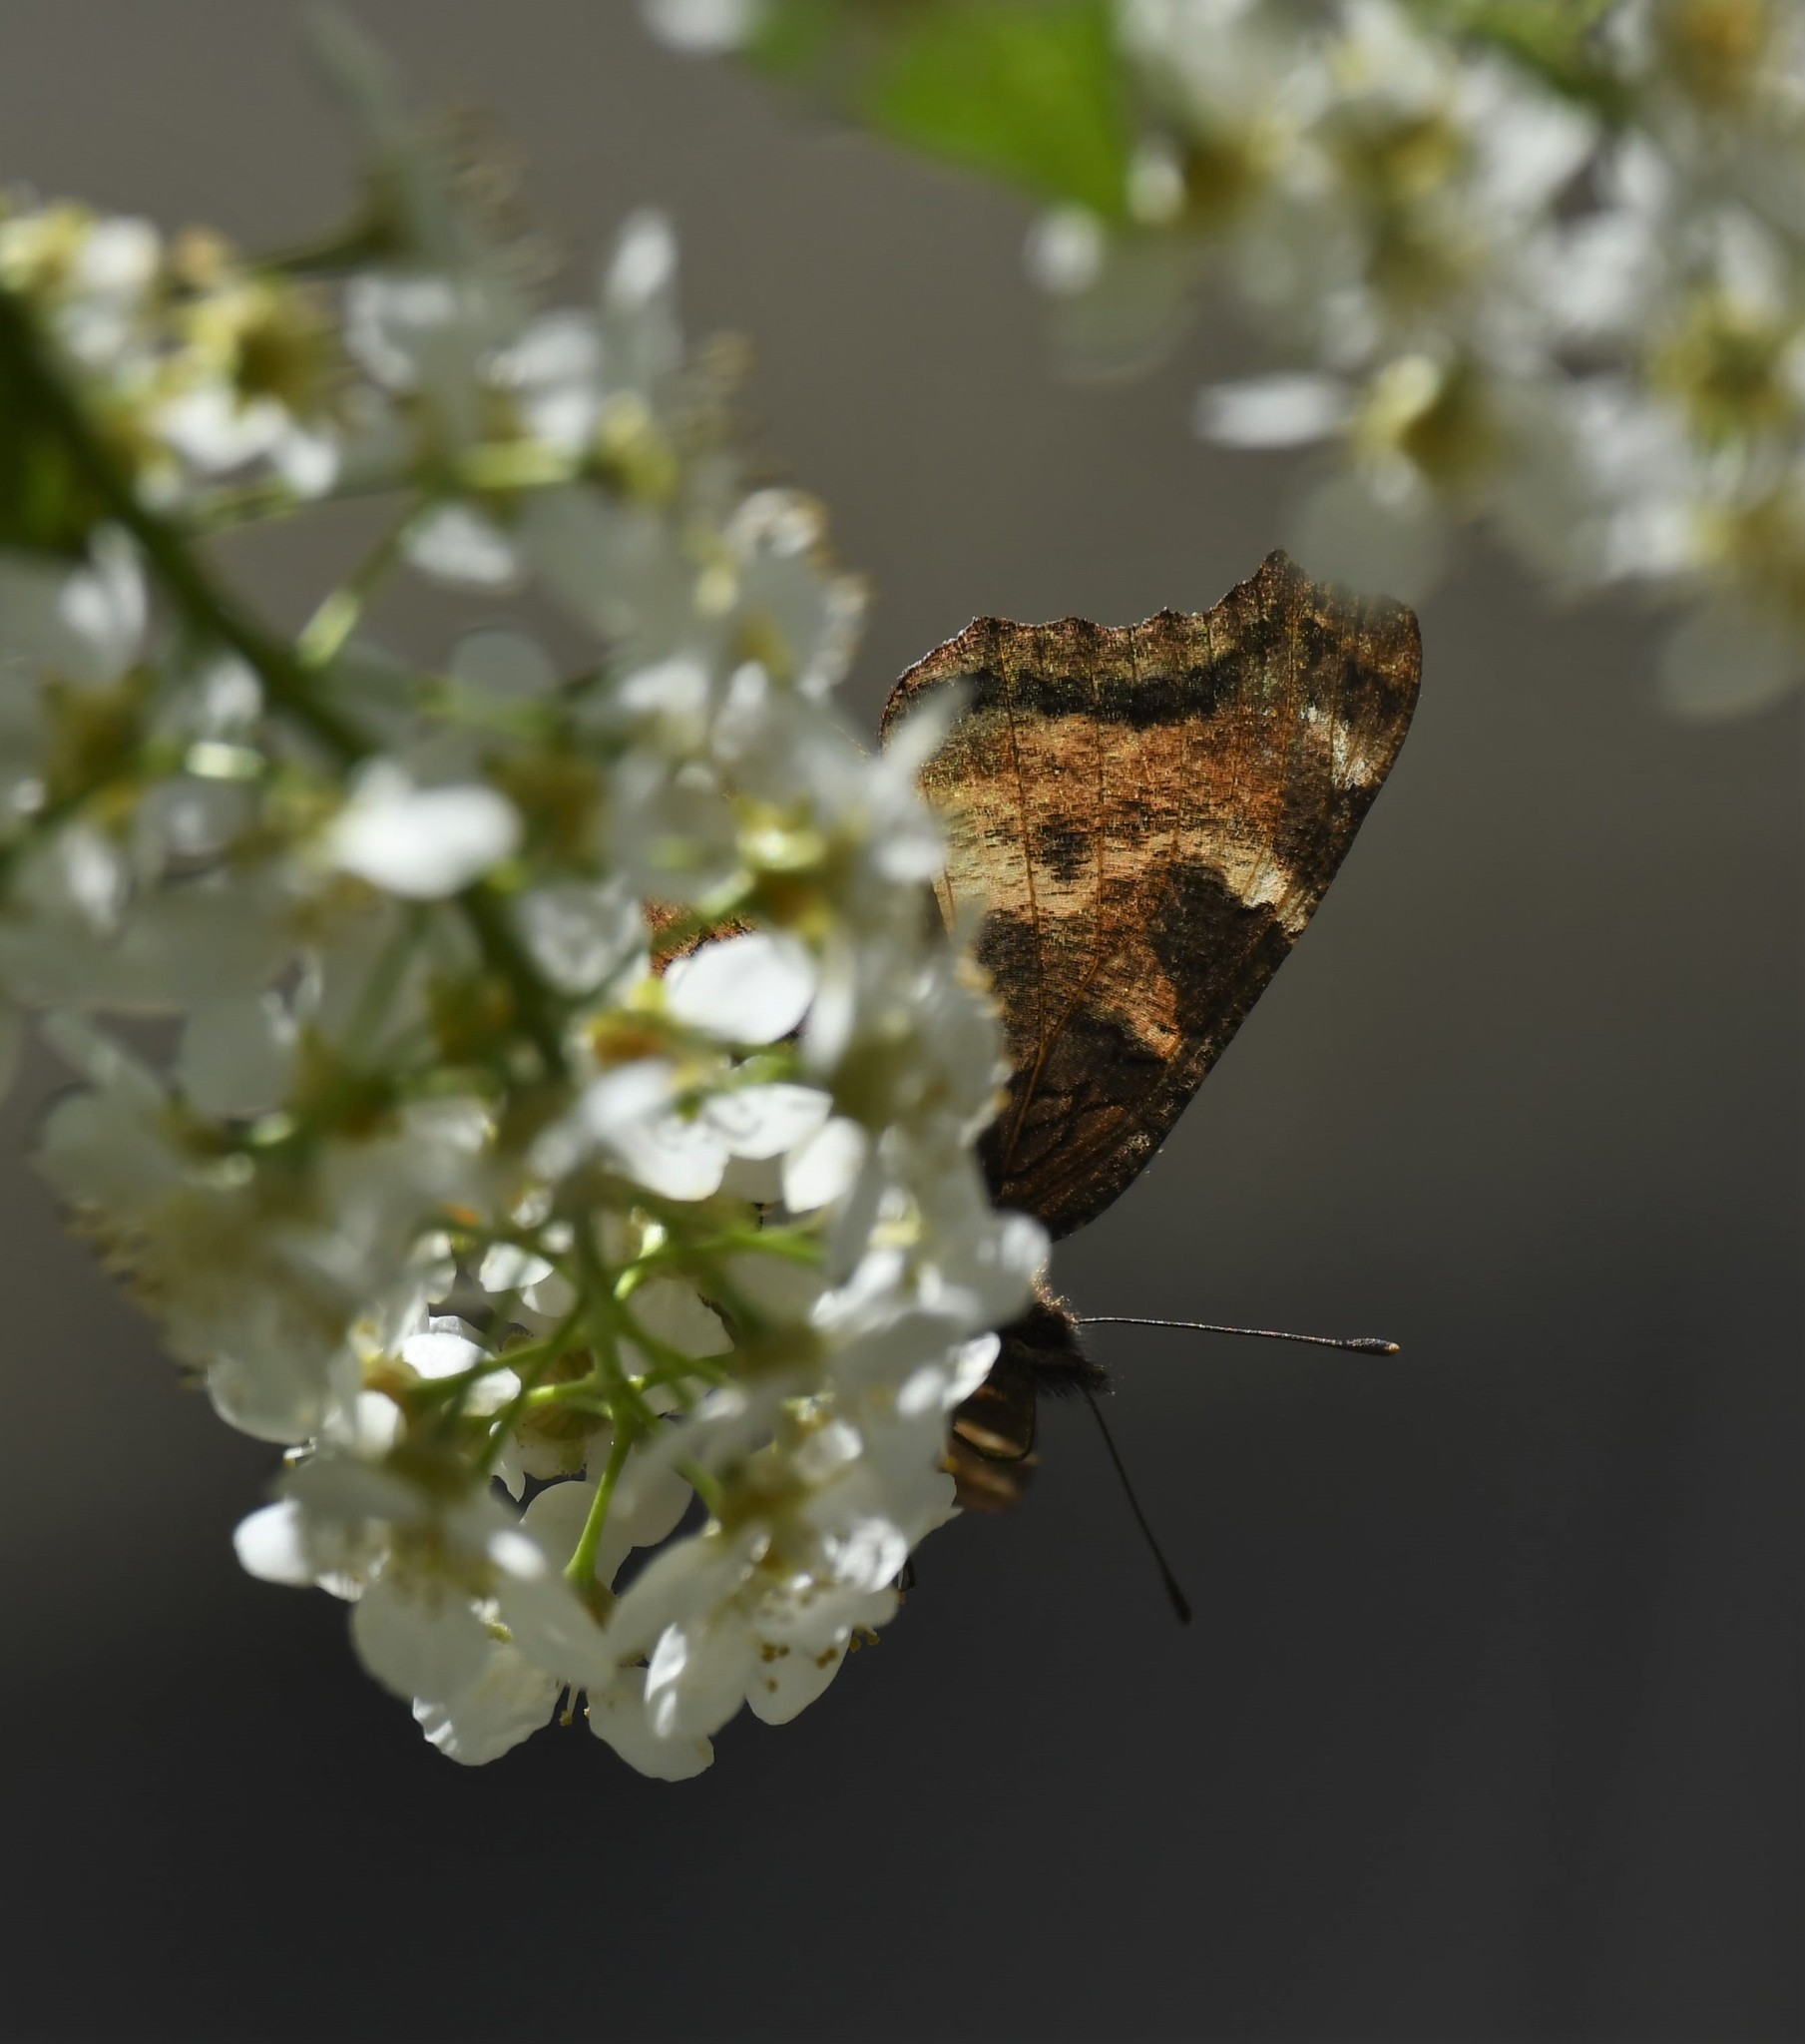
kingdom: Animalia
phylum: Arthropoda
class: Insecta
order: Lepidoptera
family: Nymphalidae
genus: Nymphalis
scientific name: Nymphalis californica
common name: California tortoiseshell
